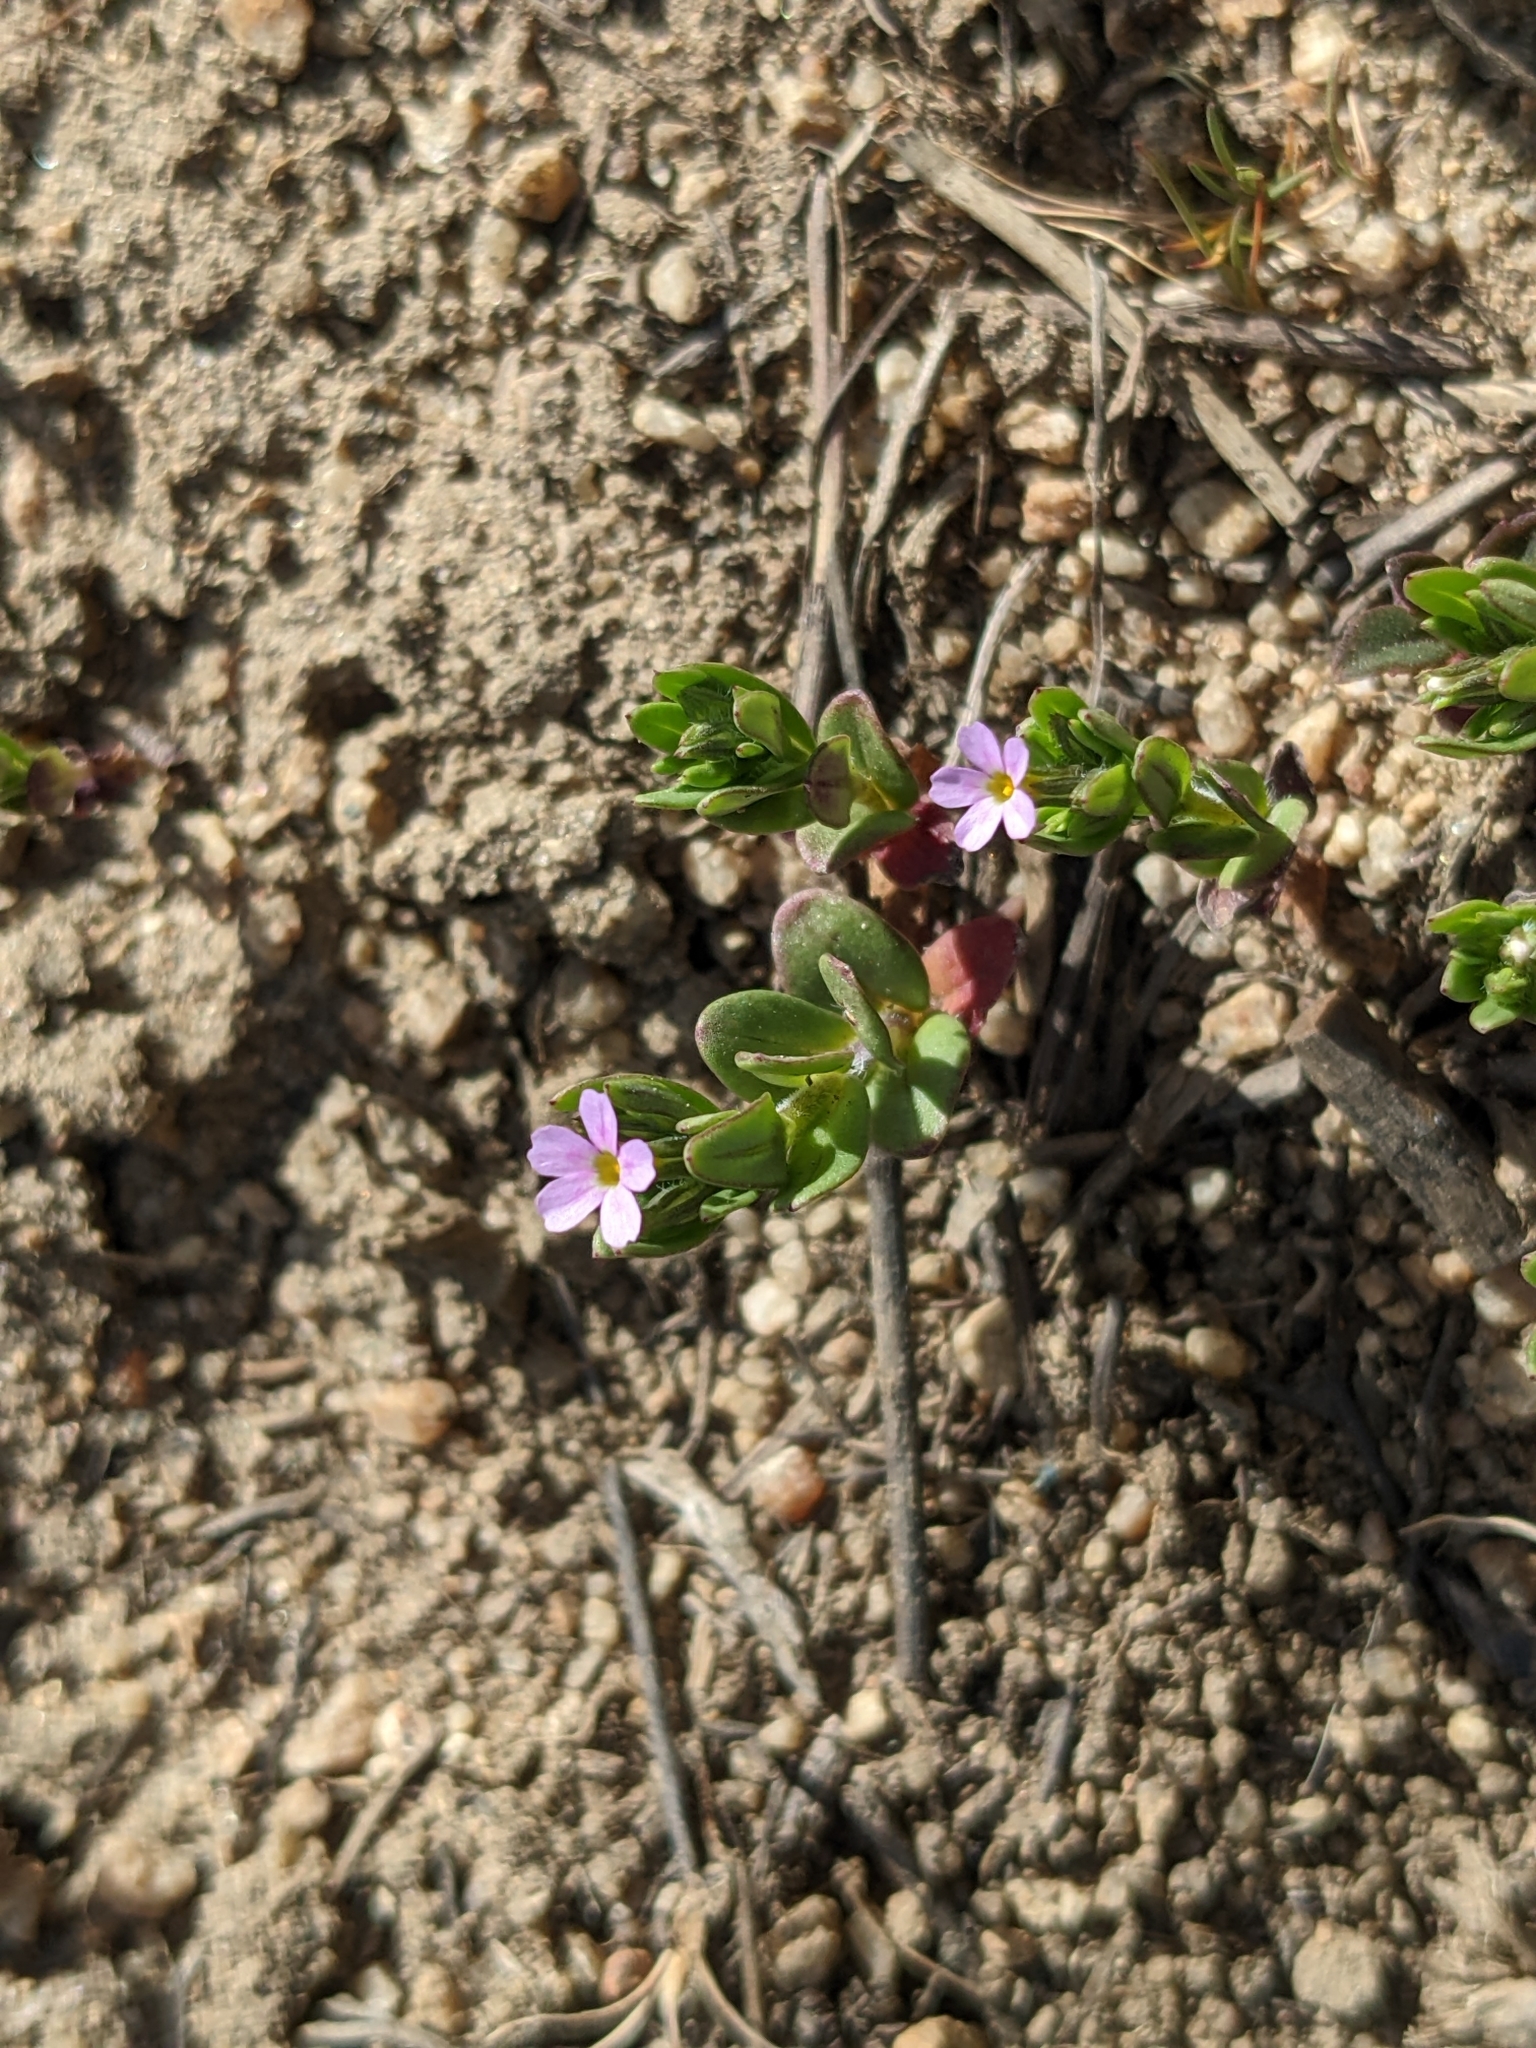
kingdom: Plantae
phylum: Tracheophyta
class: Magnoliopsida
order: Ericales
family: Polemoniaceae
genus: Phlox
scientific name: Phlox gracilis
